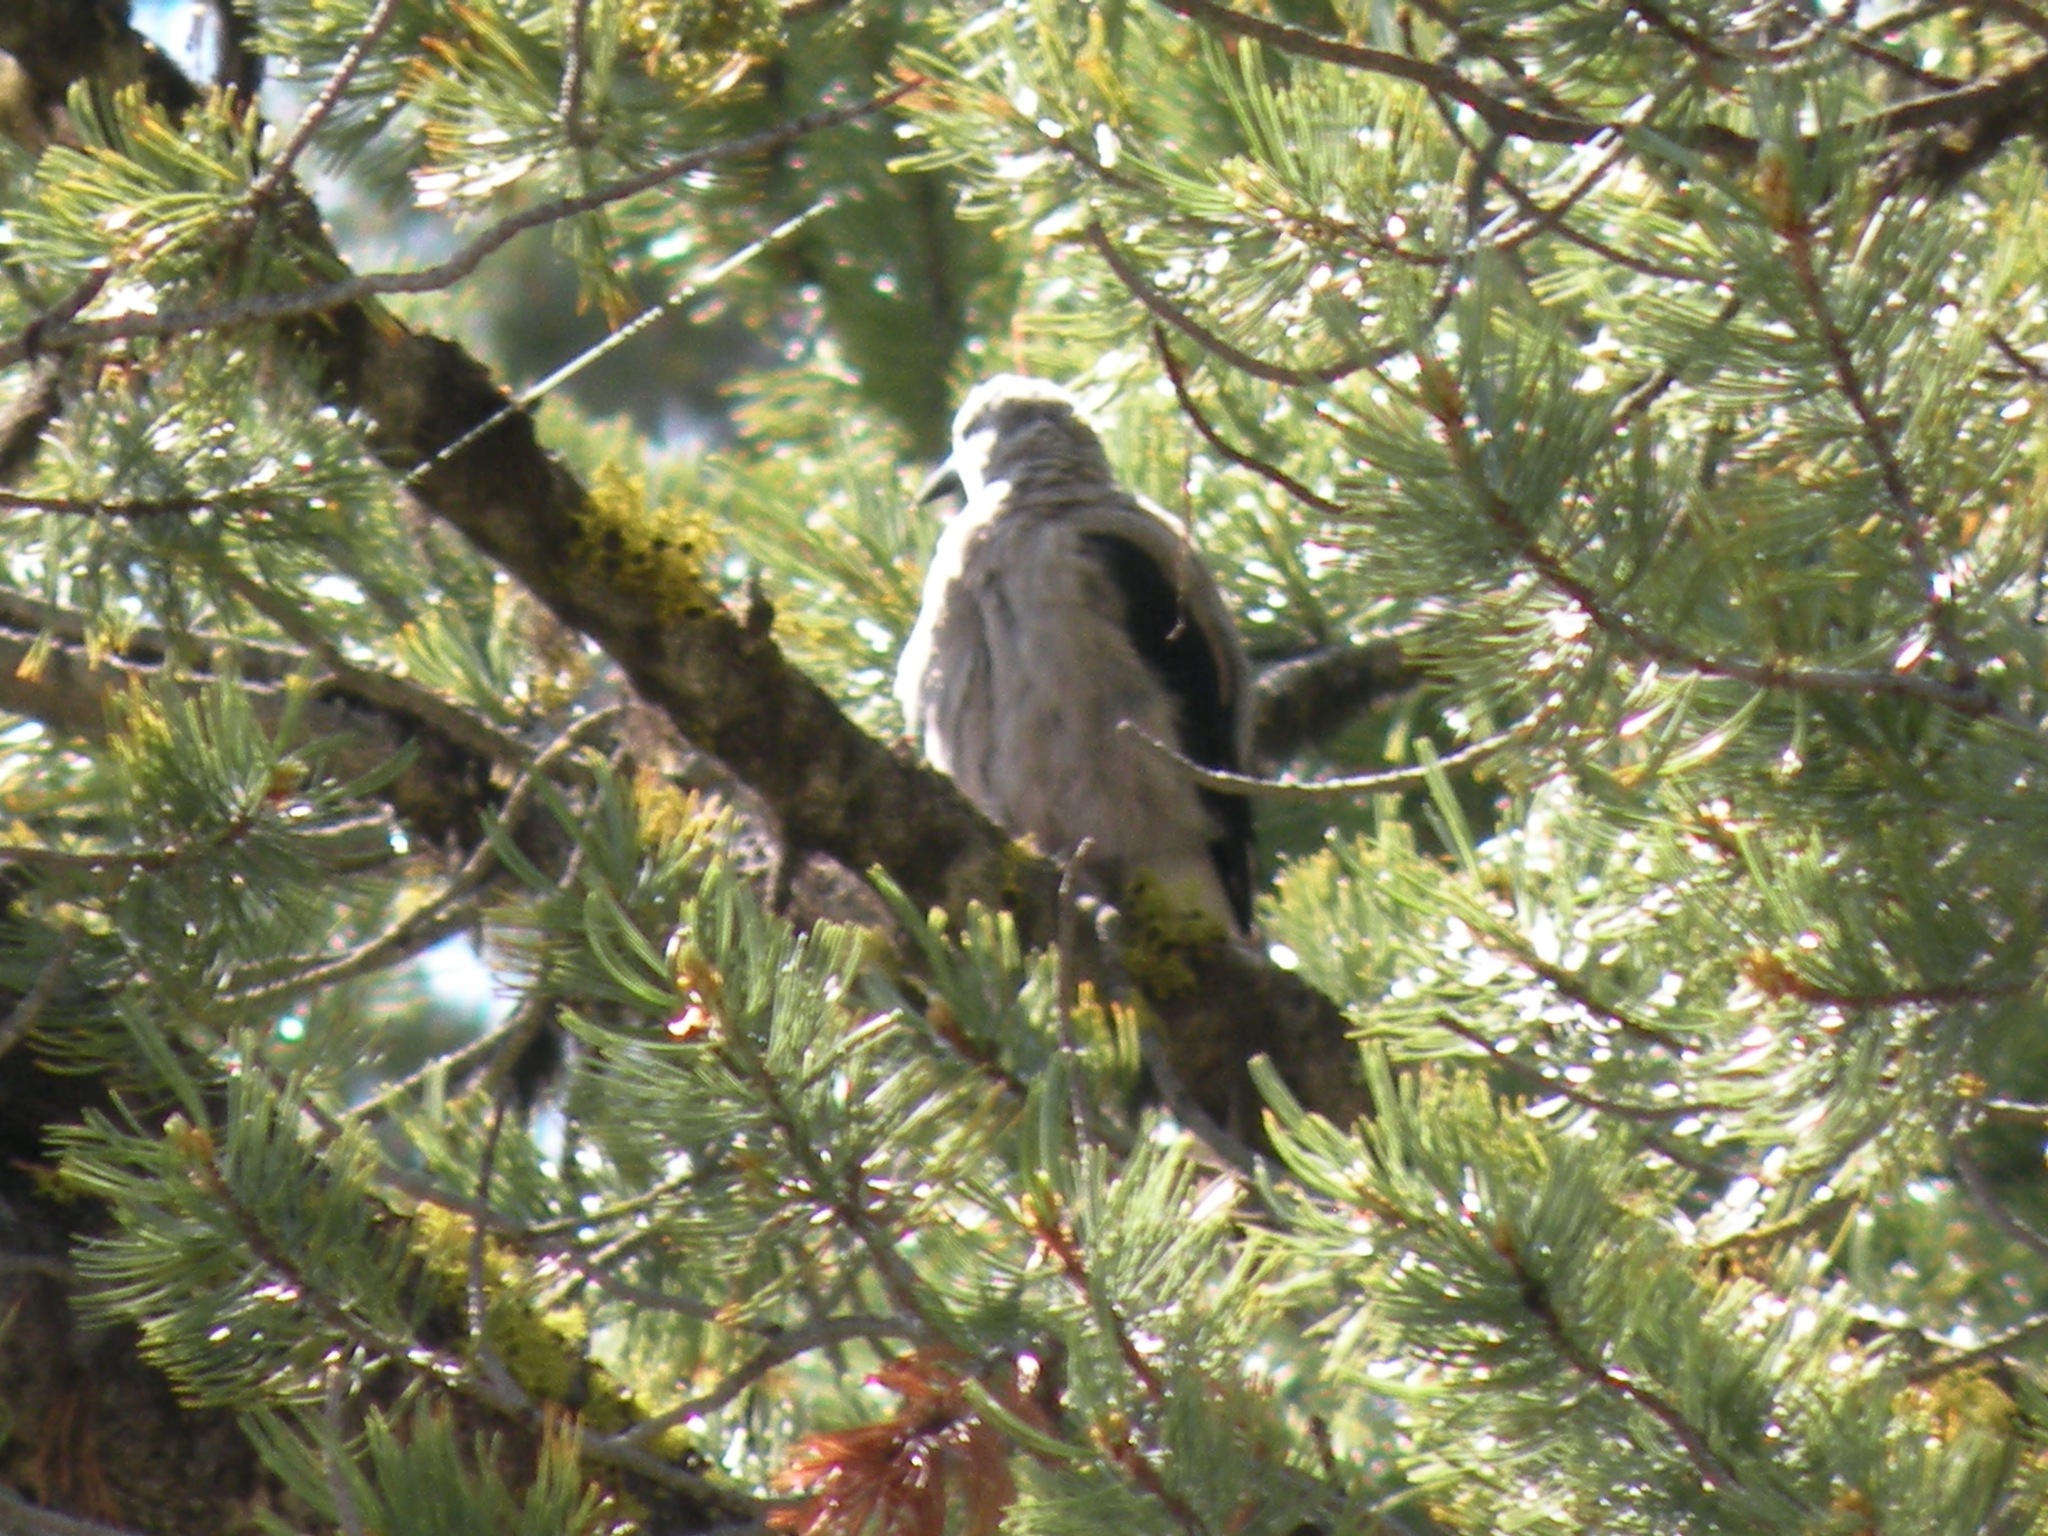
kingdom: Animalia
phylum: Chordata
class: Aves
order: Passeriformes
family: Corvidae
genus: Nucifraga
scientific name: Nucifraga columbiana
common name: Clark's nutcracker
